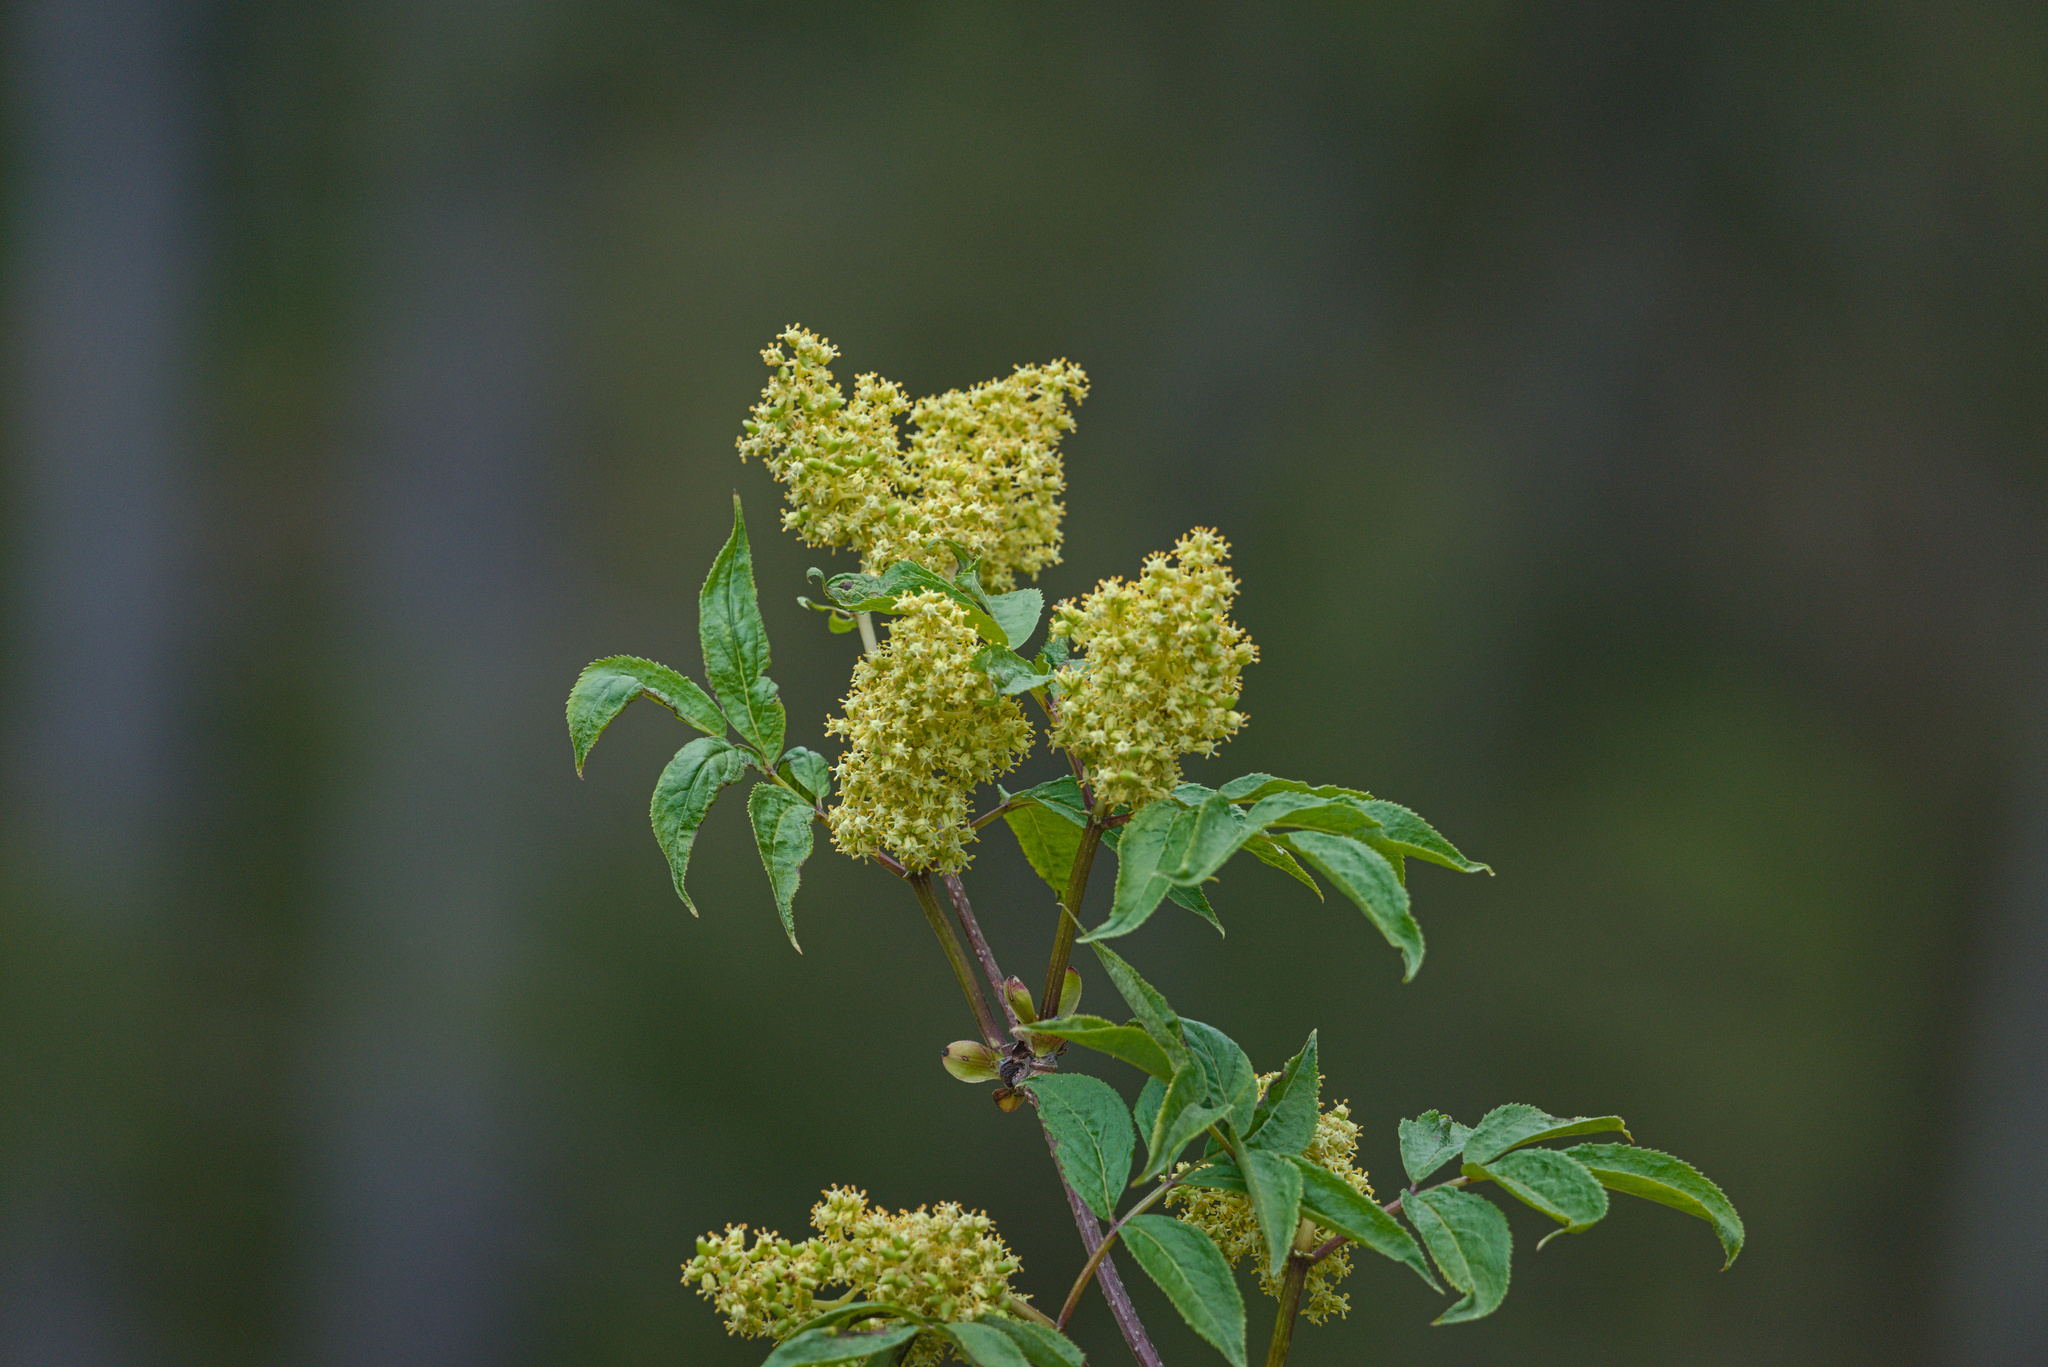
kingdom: Plantae
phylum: Tracheophyta
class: Magnoliopsida
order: Dipsacales
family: Viburnaceae
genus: Sambucus
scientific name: Sambucus racemosa
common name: Red-berried elder
